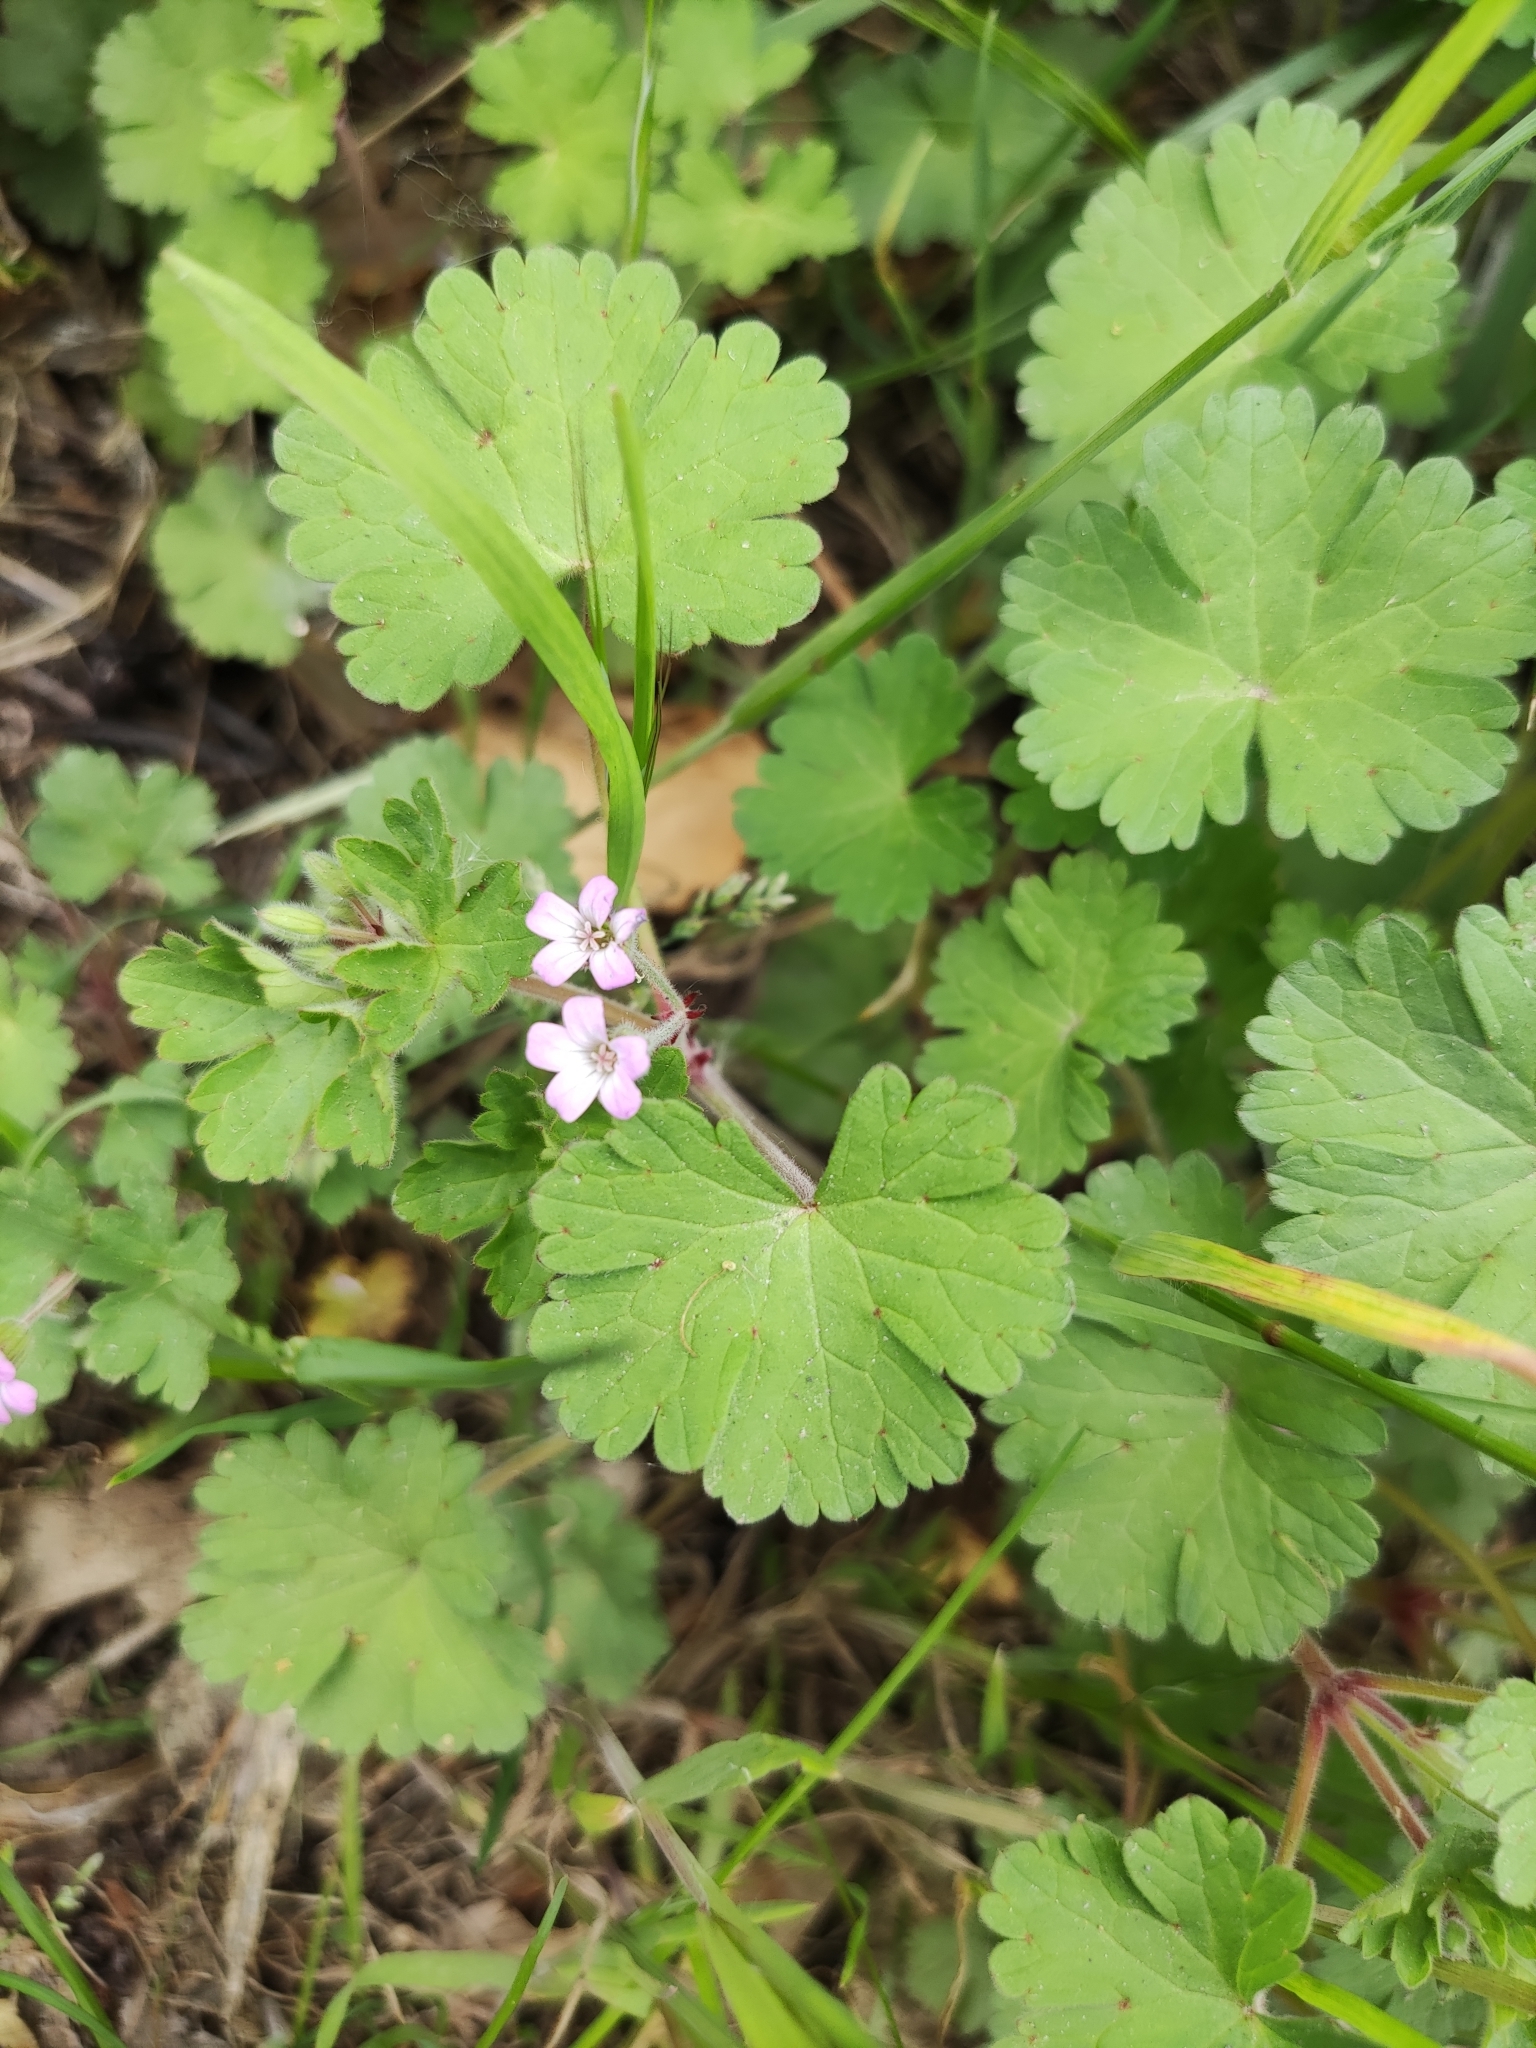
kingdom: Plantae
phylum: Tracheophyta
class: Magnoliopsida
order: Geraniales
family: Geraniaceae
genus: Geranium
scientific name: Geranium rotundifolium
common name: Round-leaved crane's-bill
